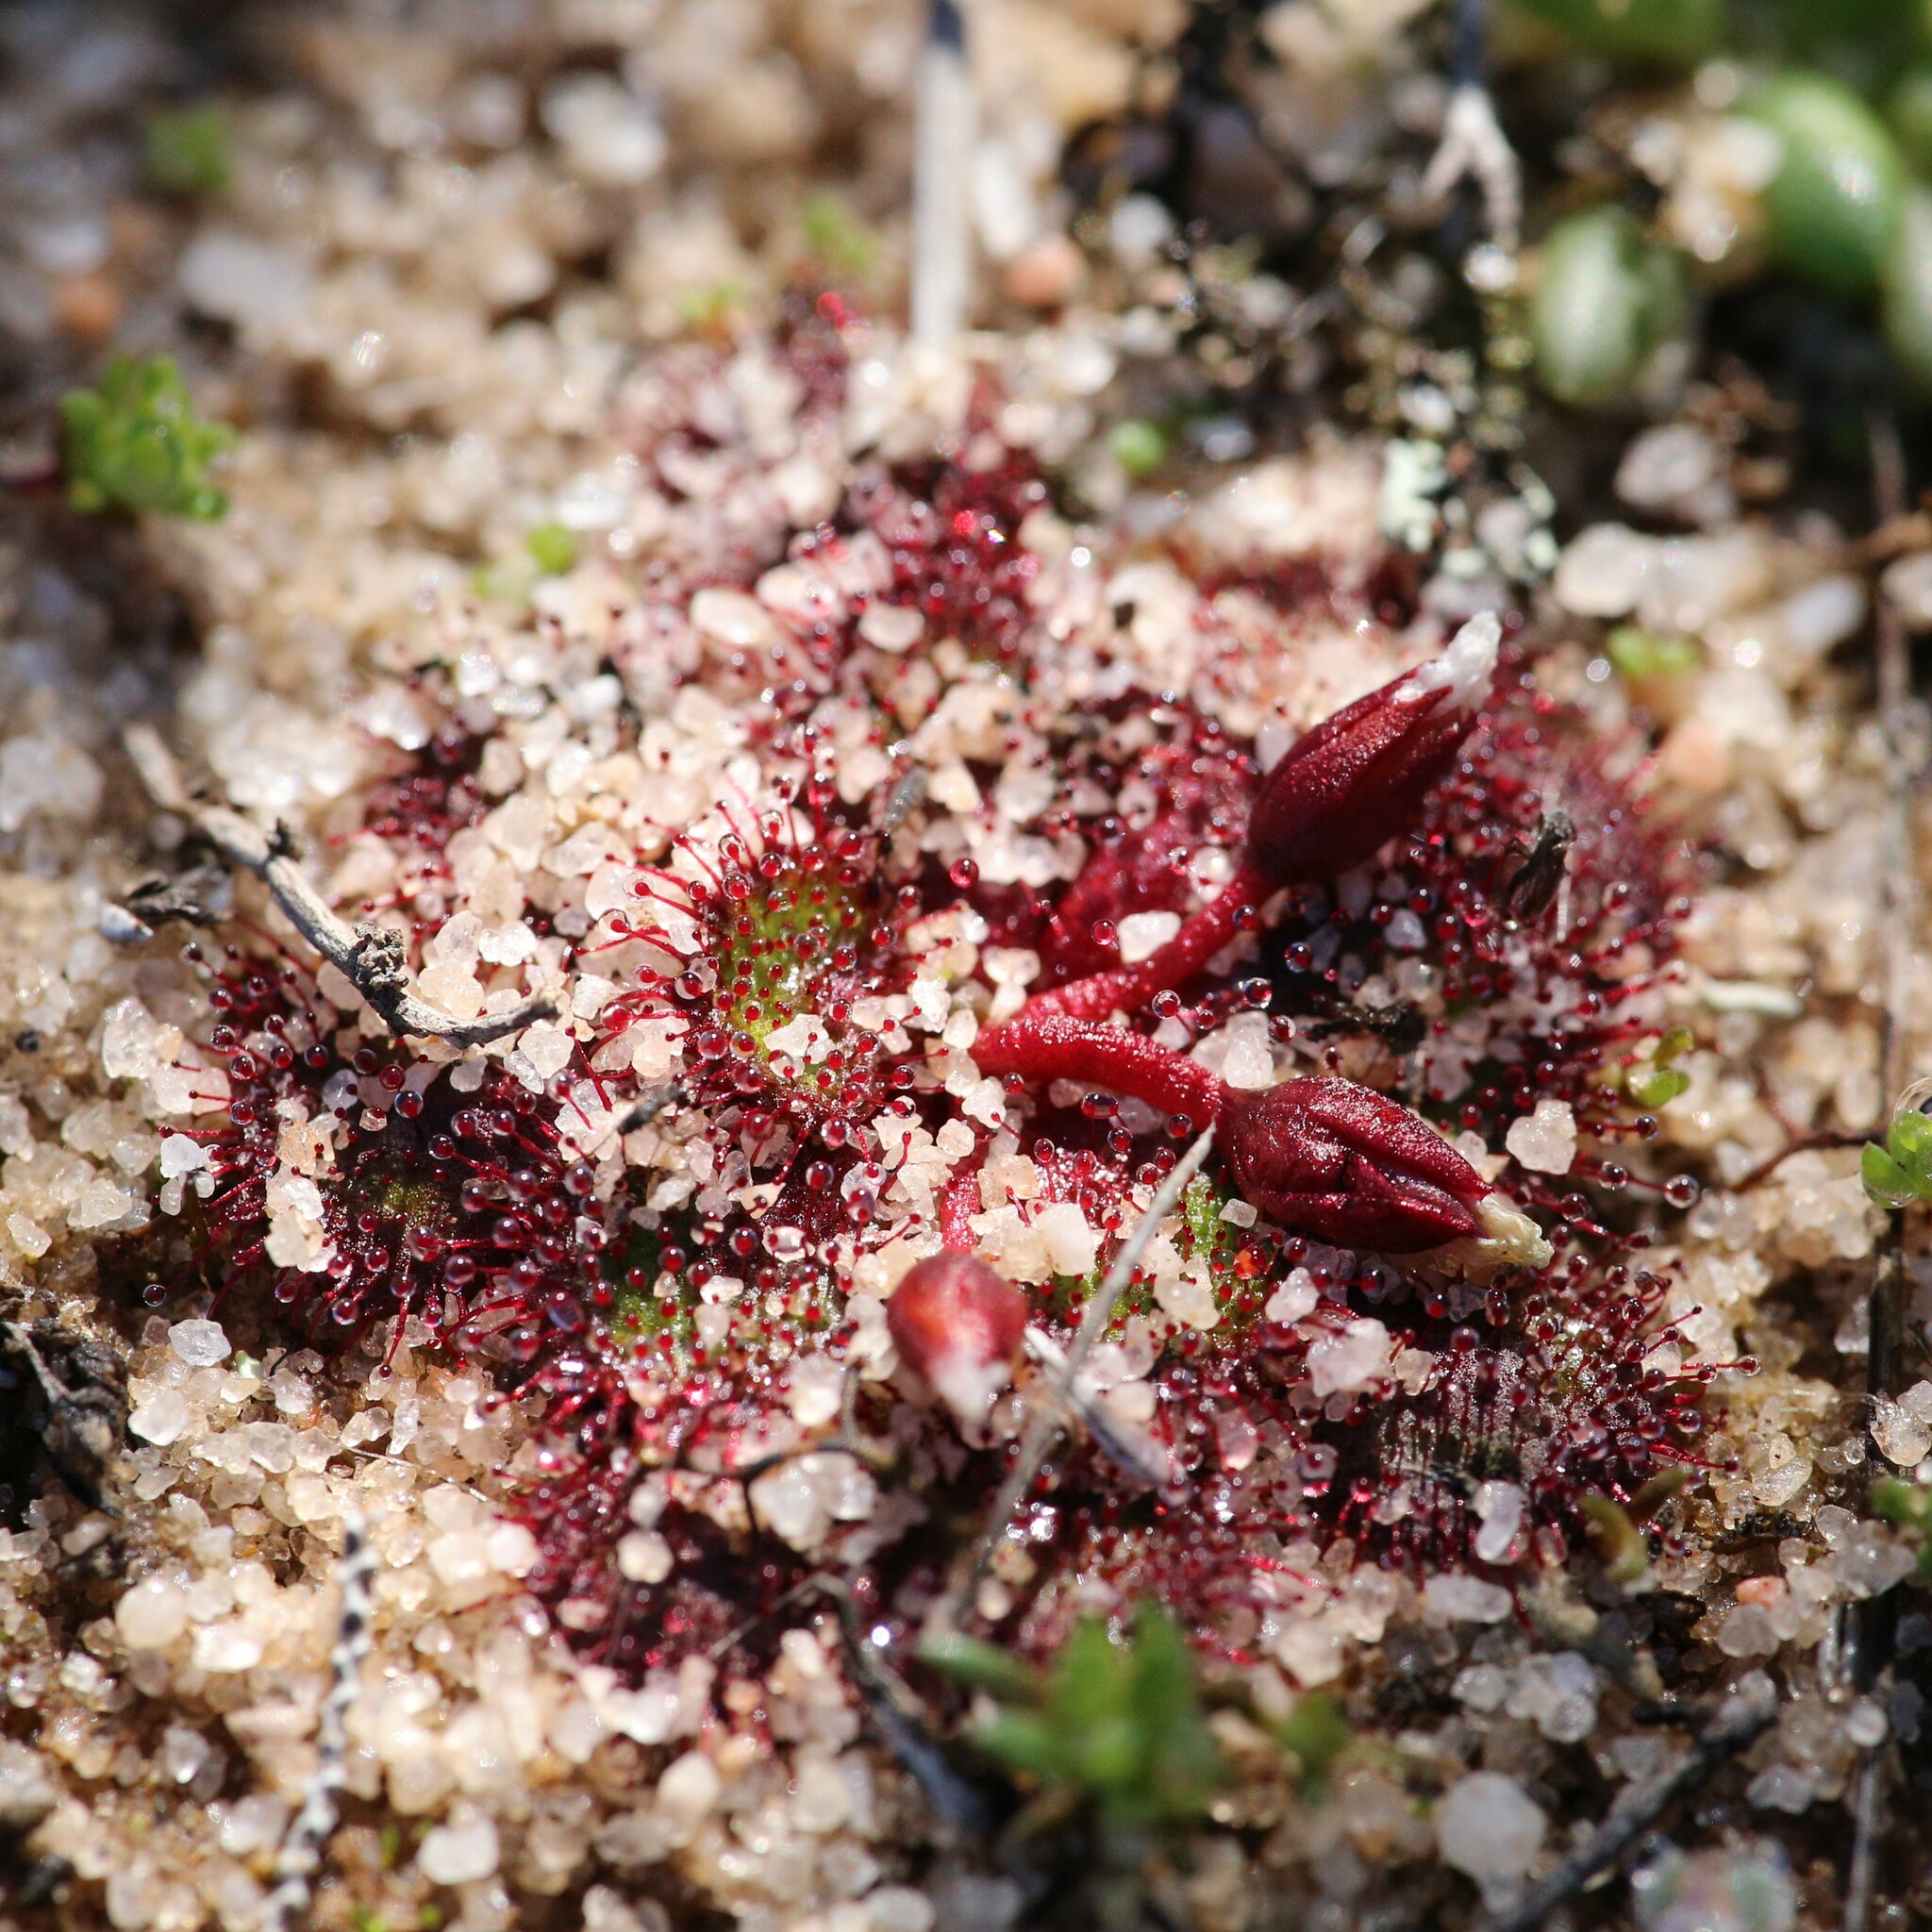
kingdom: Plantae
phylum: Tracheophyta
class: Magnoliopsida
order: Caryophyllales
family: Droseraceae
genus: Drosera
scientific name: Drosera lowriei
